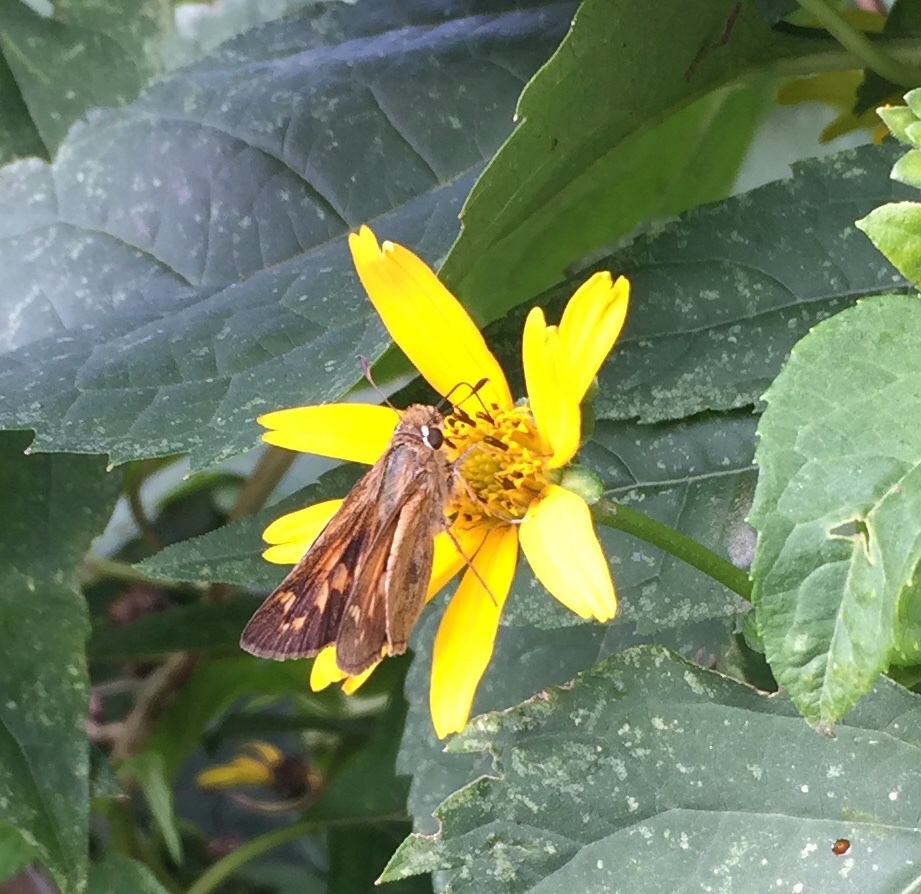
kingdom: Animalia
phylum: Arthropoda
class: Insecta
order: Lepidoptera
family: Hesperiidae
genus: Atalopedes
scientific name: Atalopedes
